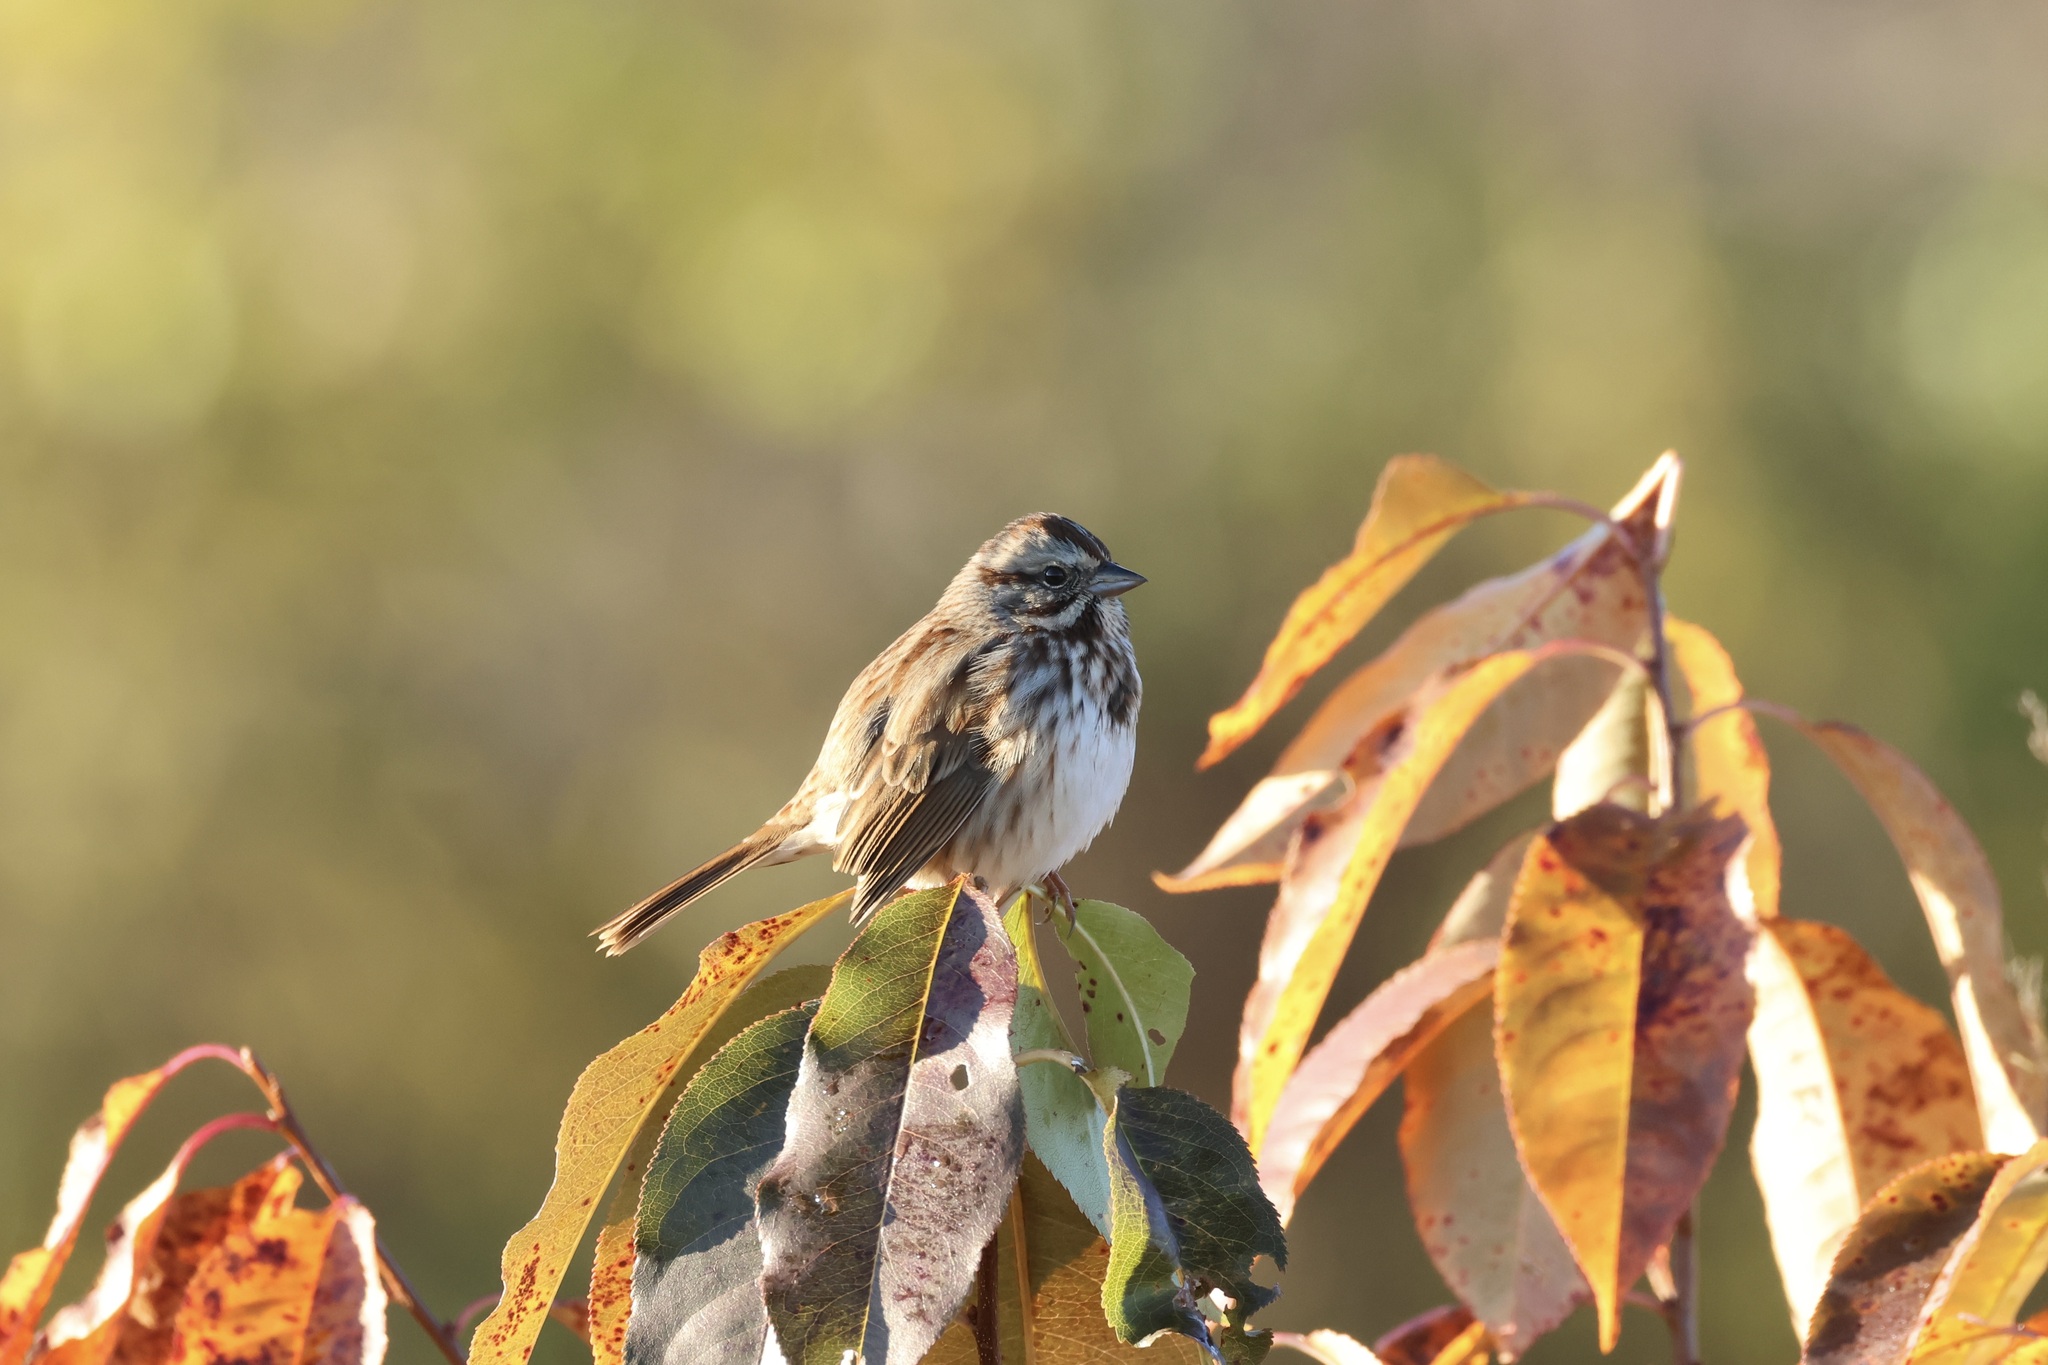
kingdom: Animalia
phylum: Chordata
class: Aves
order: Passeriformes
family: Passerellidae
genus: Melospiza
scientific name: Melospiza melodia
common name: Song sparrow
